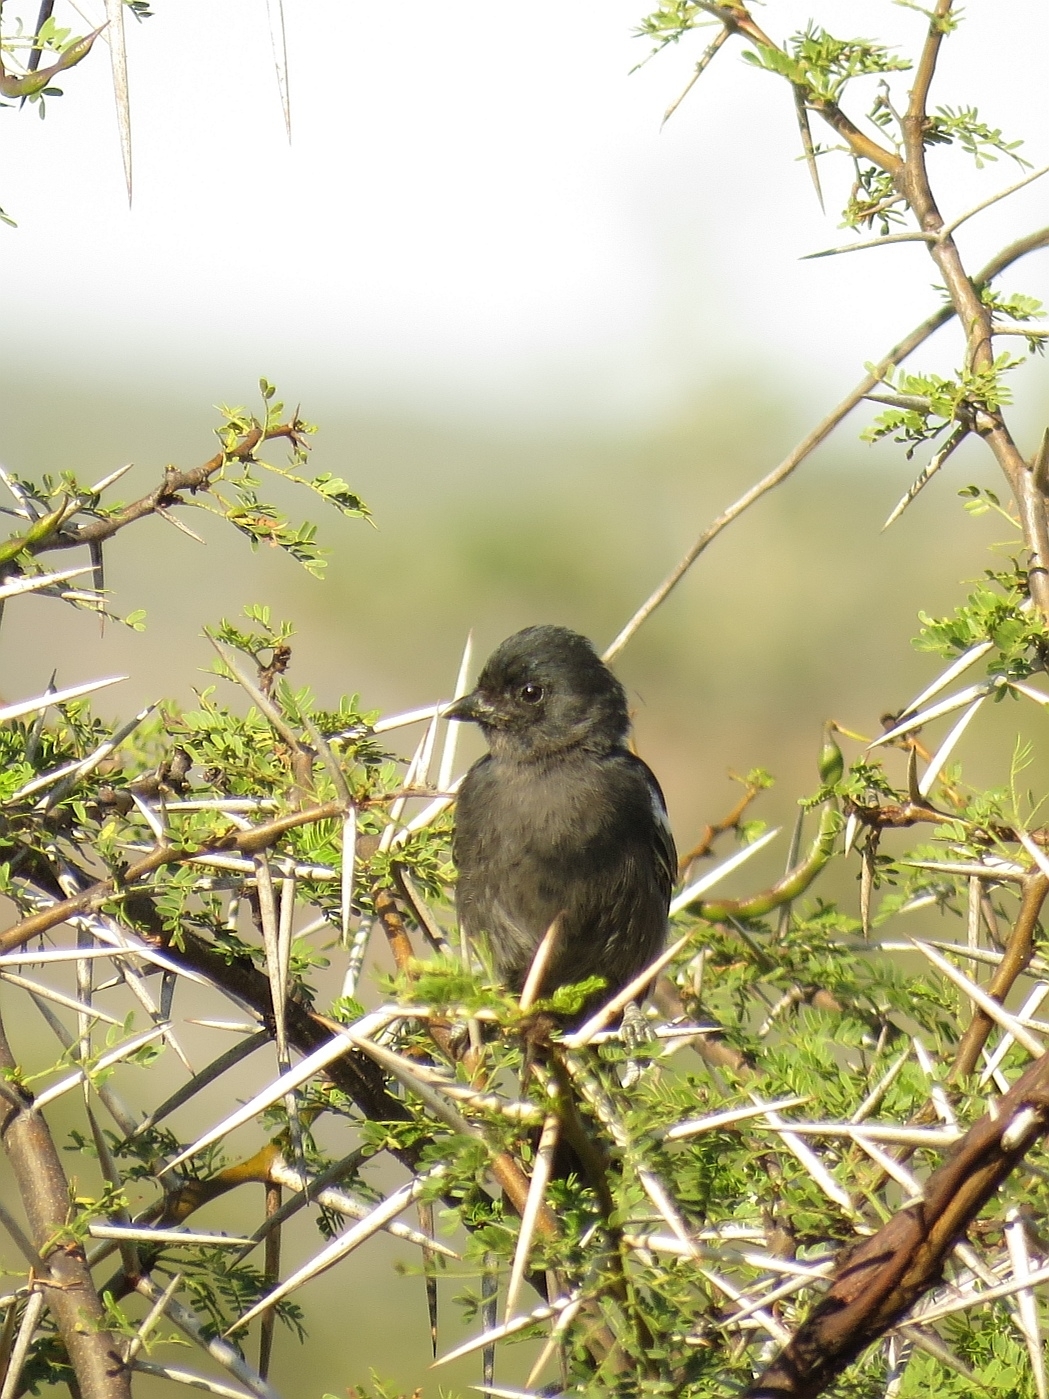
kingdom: Animalia
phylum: Chordata
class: Aves
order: Passeriformes
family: Paridae
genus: Parus
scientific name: Parus niger
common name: Southern black tit
